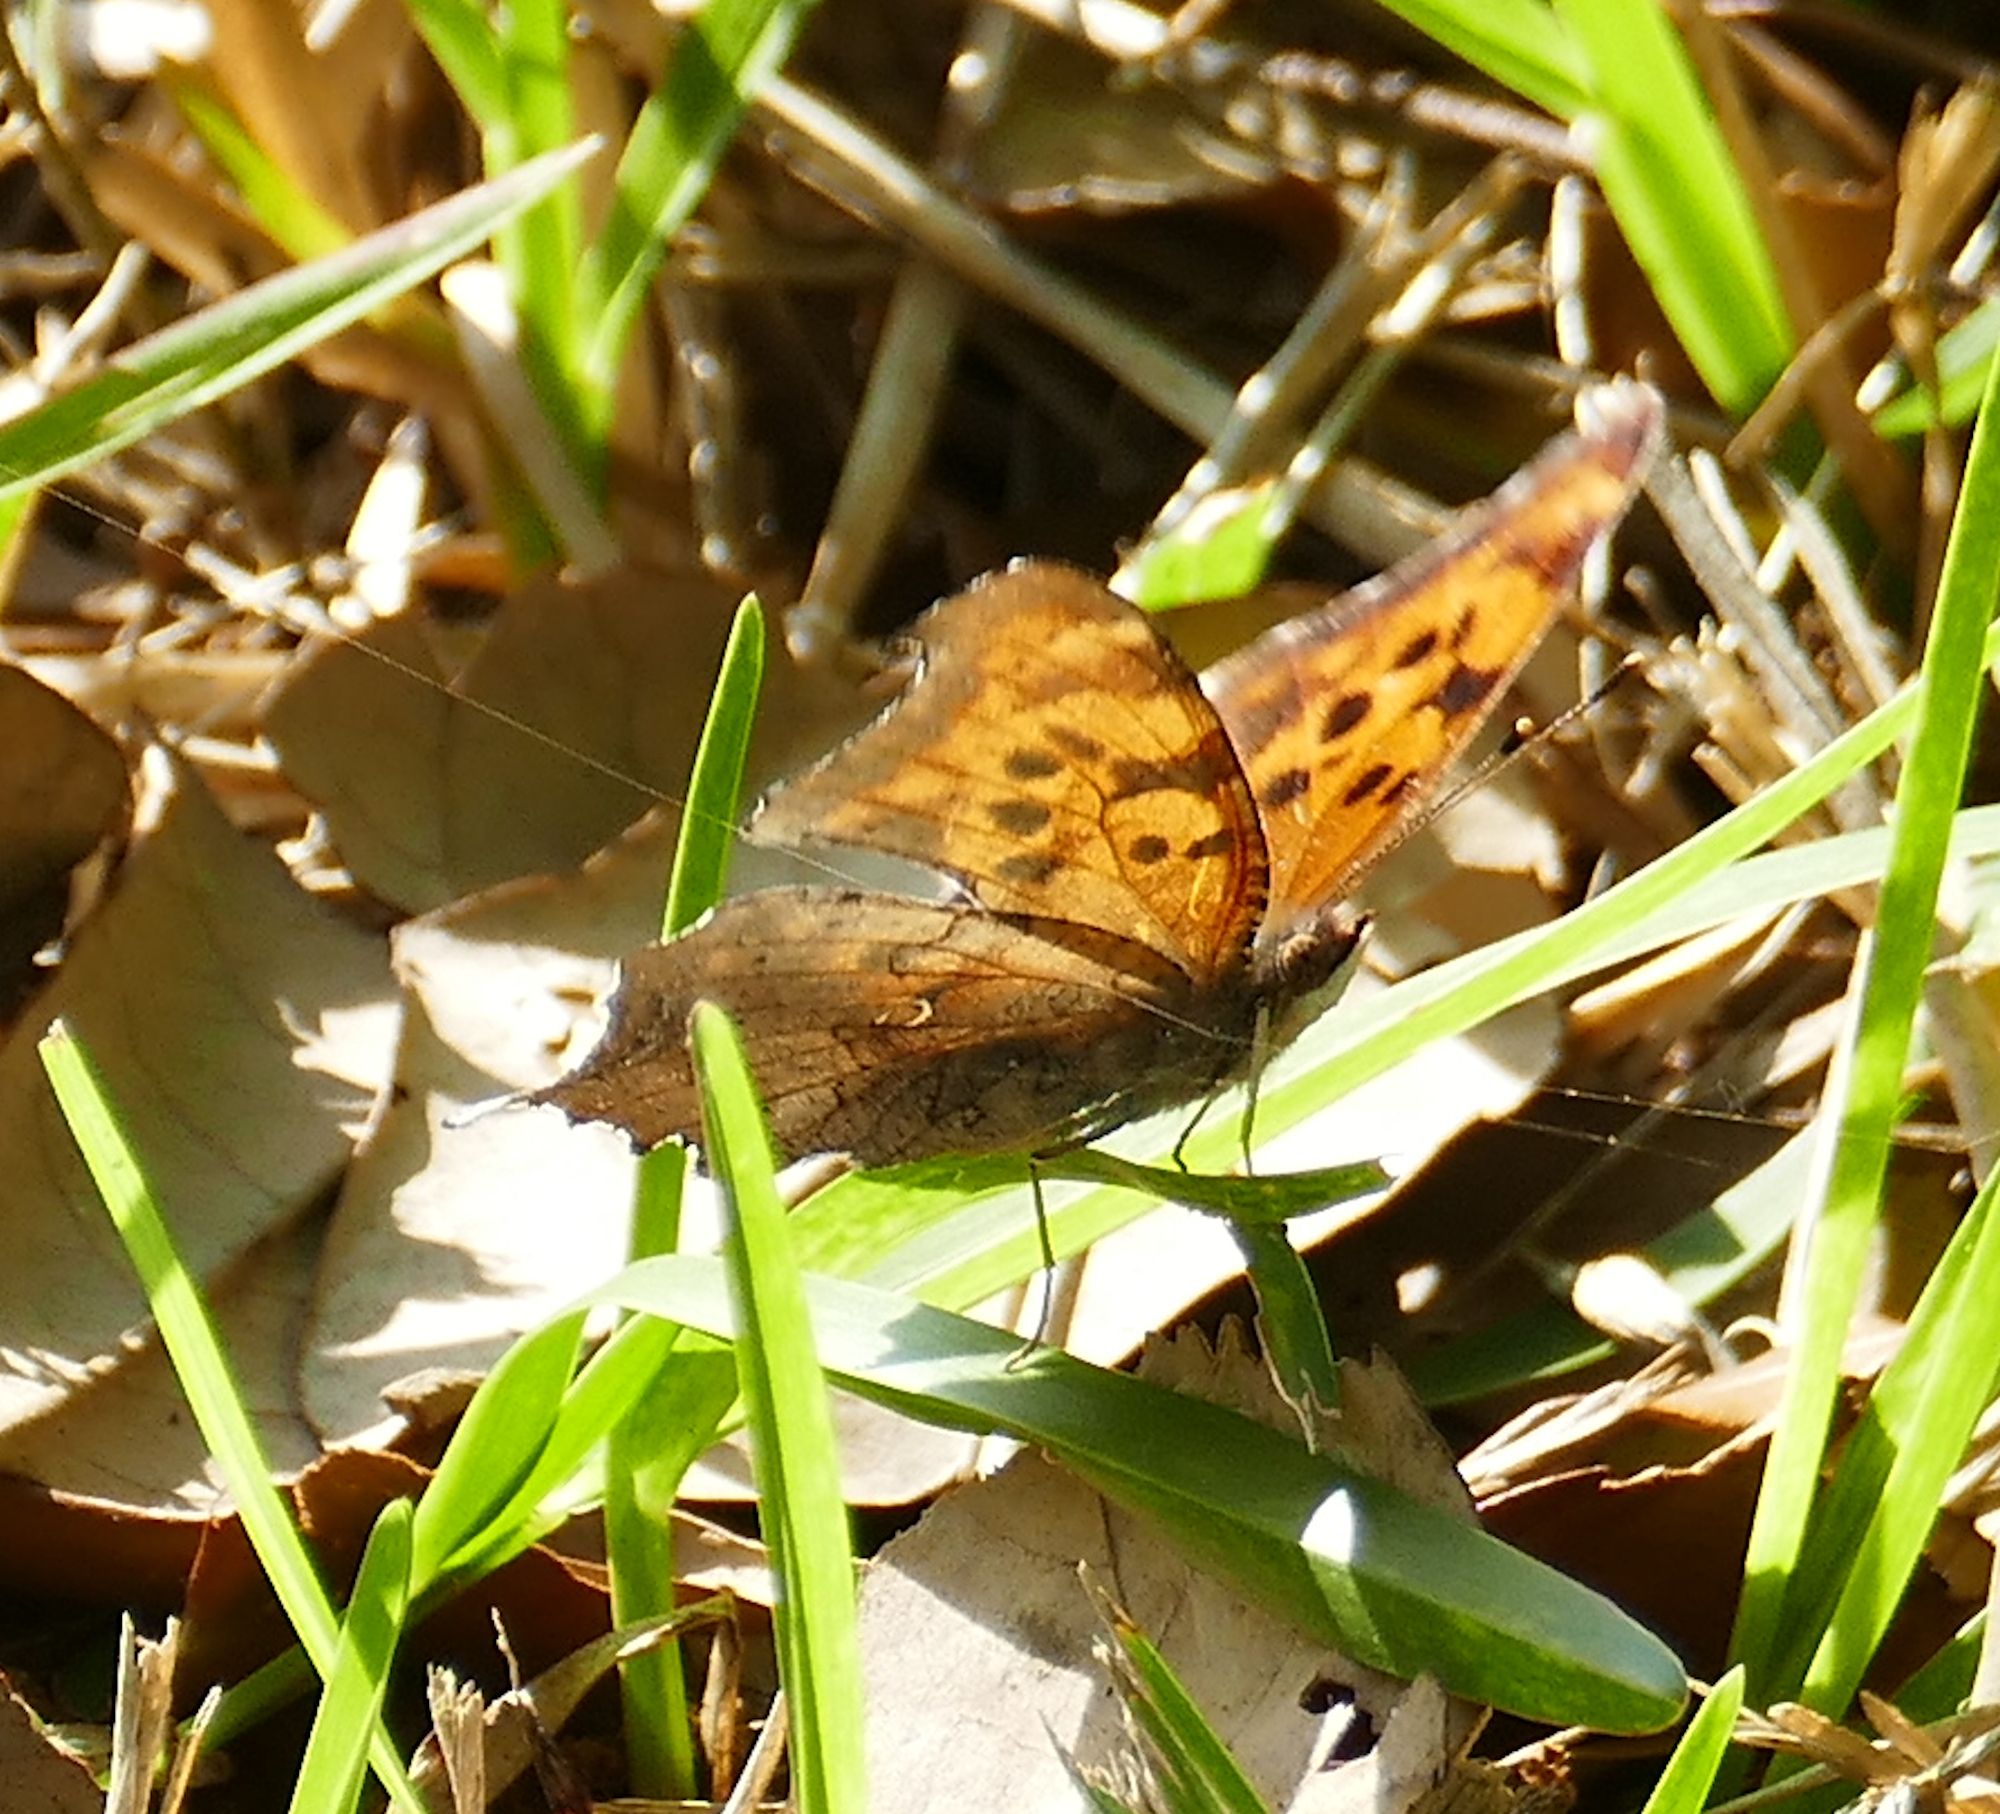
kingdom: Animalia
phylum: Arthropoda
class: Insecta
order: Lepidoptera
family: Nymphalidae
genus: Polygonia
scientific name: Polygonia interrogationis
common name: Question mark
